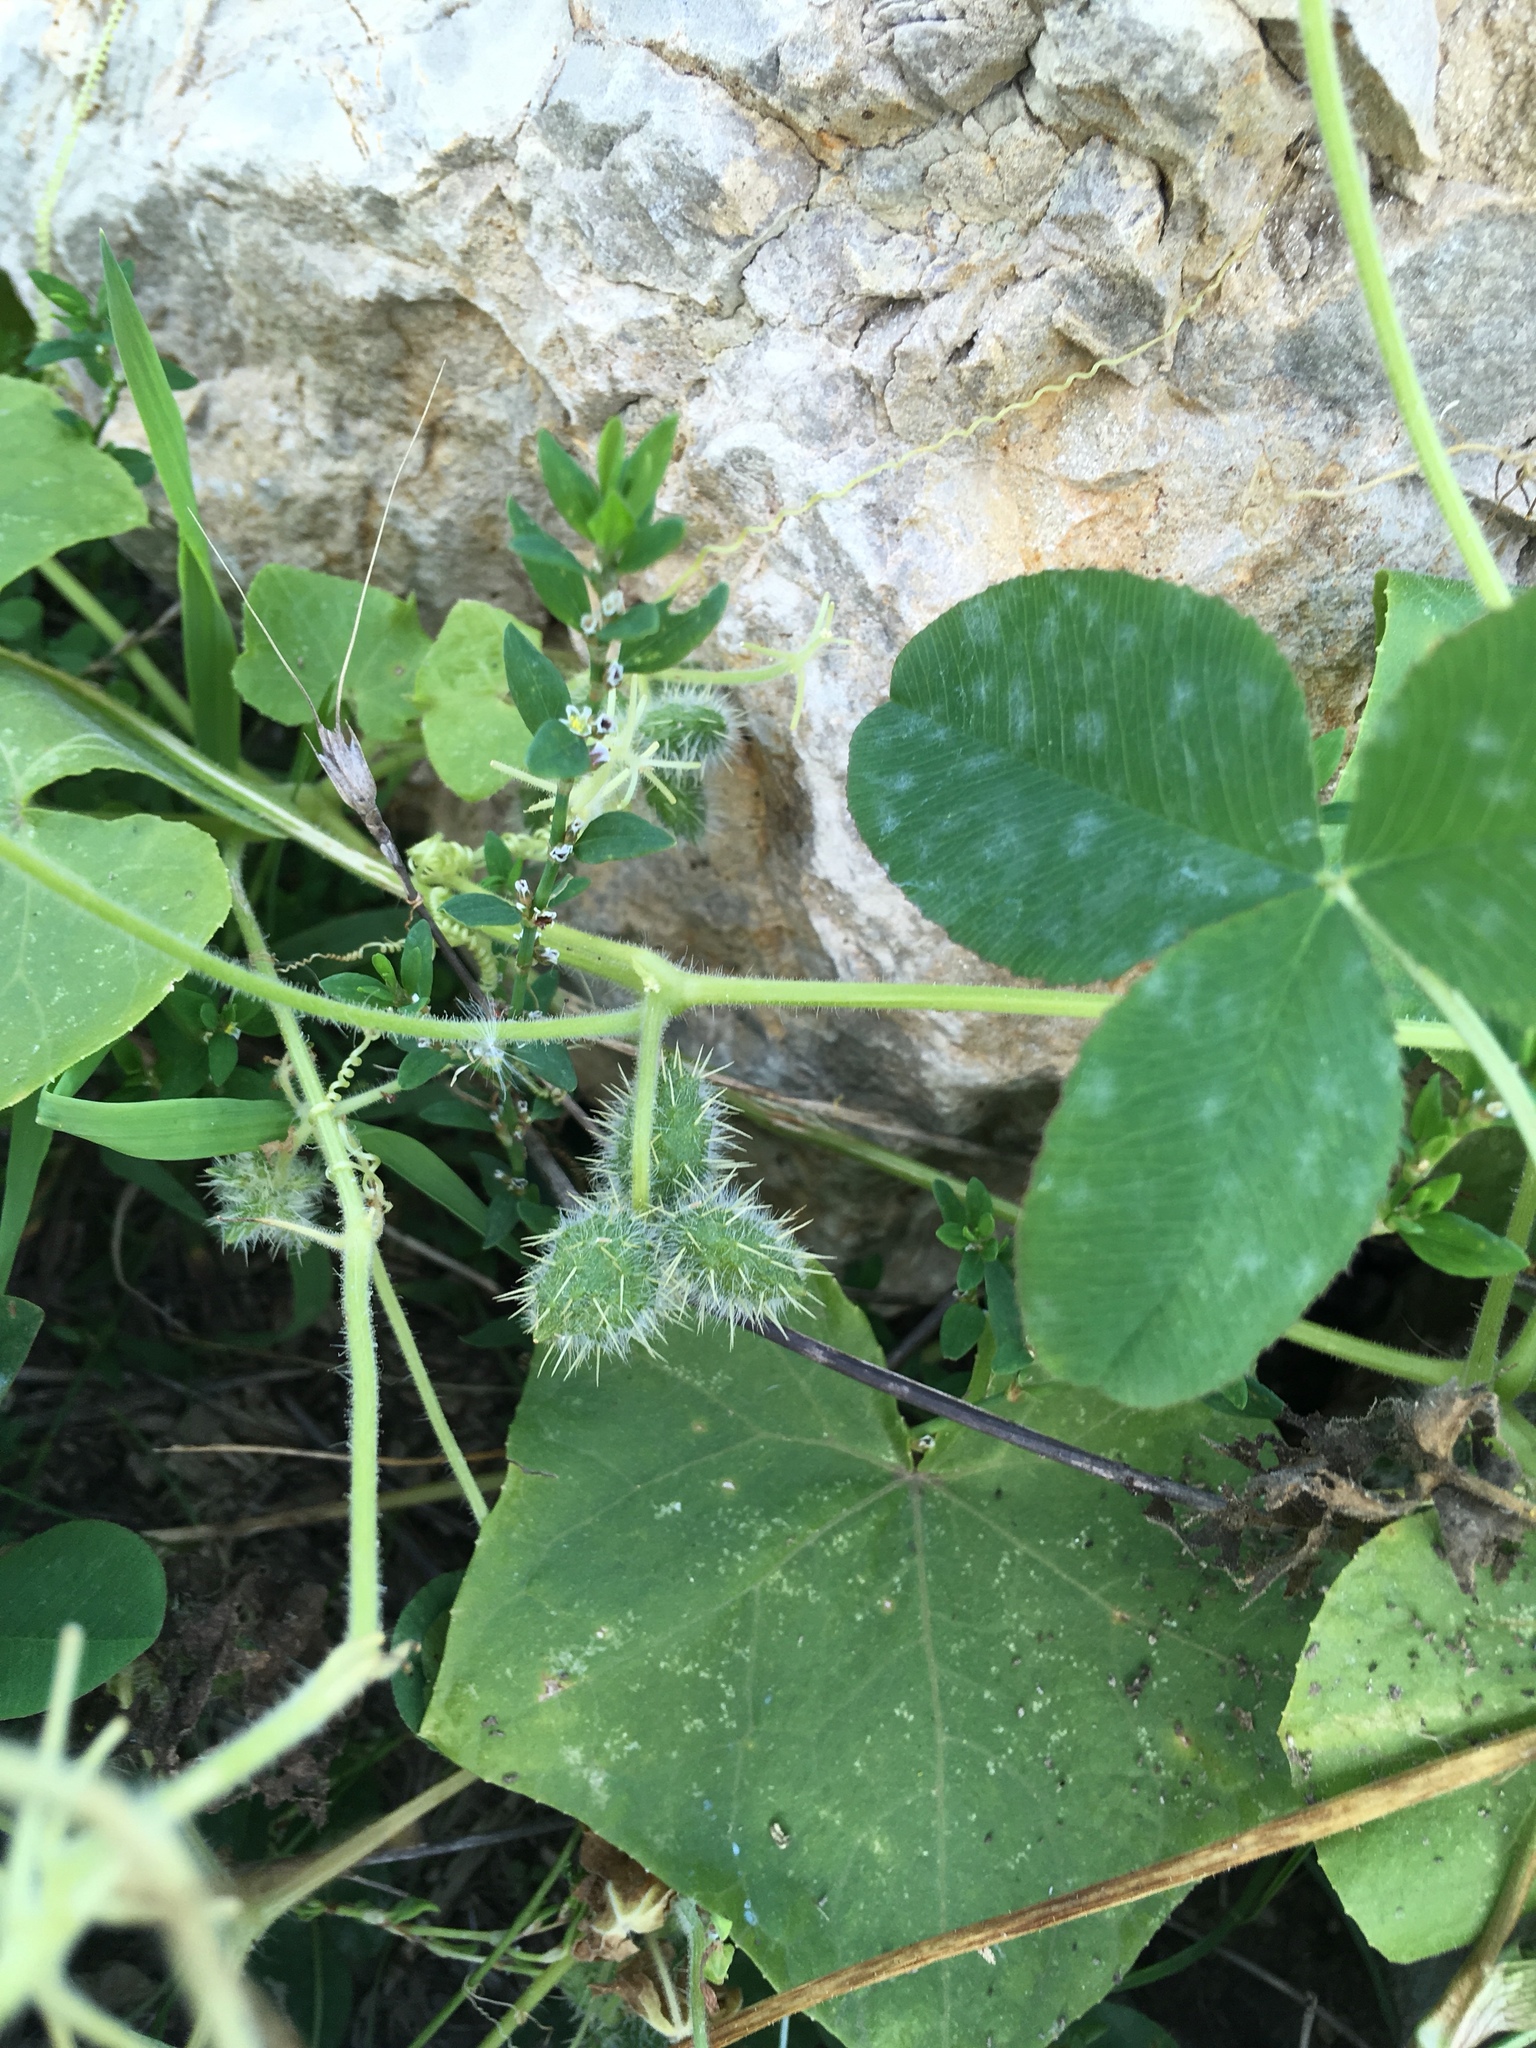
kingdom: Plantae
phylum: Tracheophyta
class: Magnoliopsida
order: Cucurbitales
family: Cucurbitaceae
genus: Sicyos
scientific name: Sicyos angulatus
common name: Angled burr cucumber
